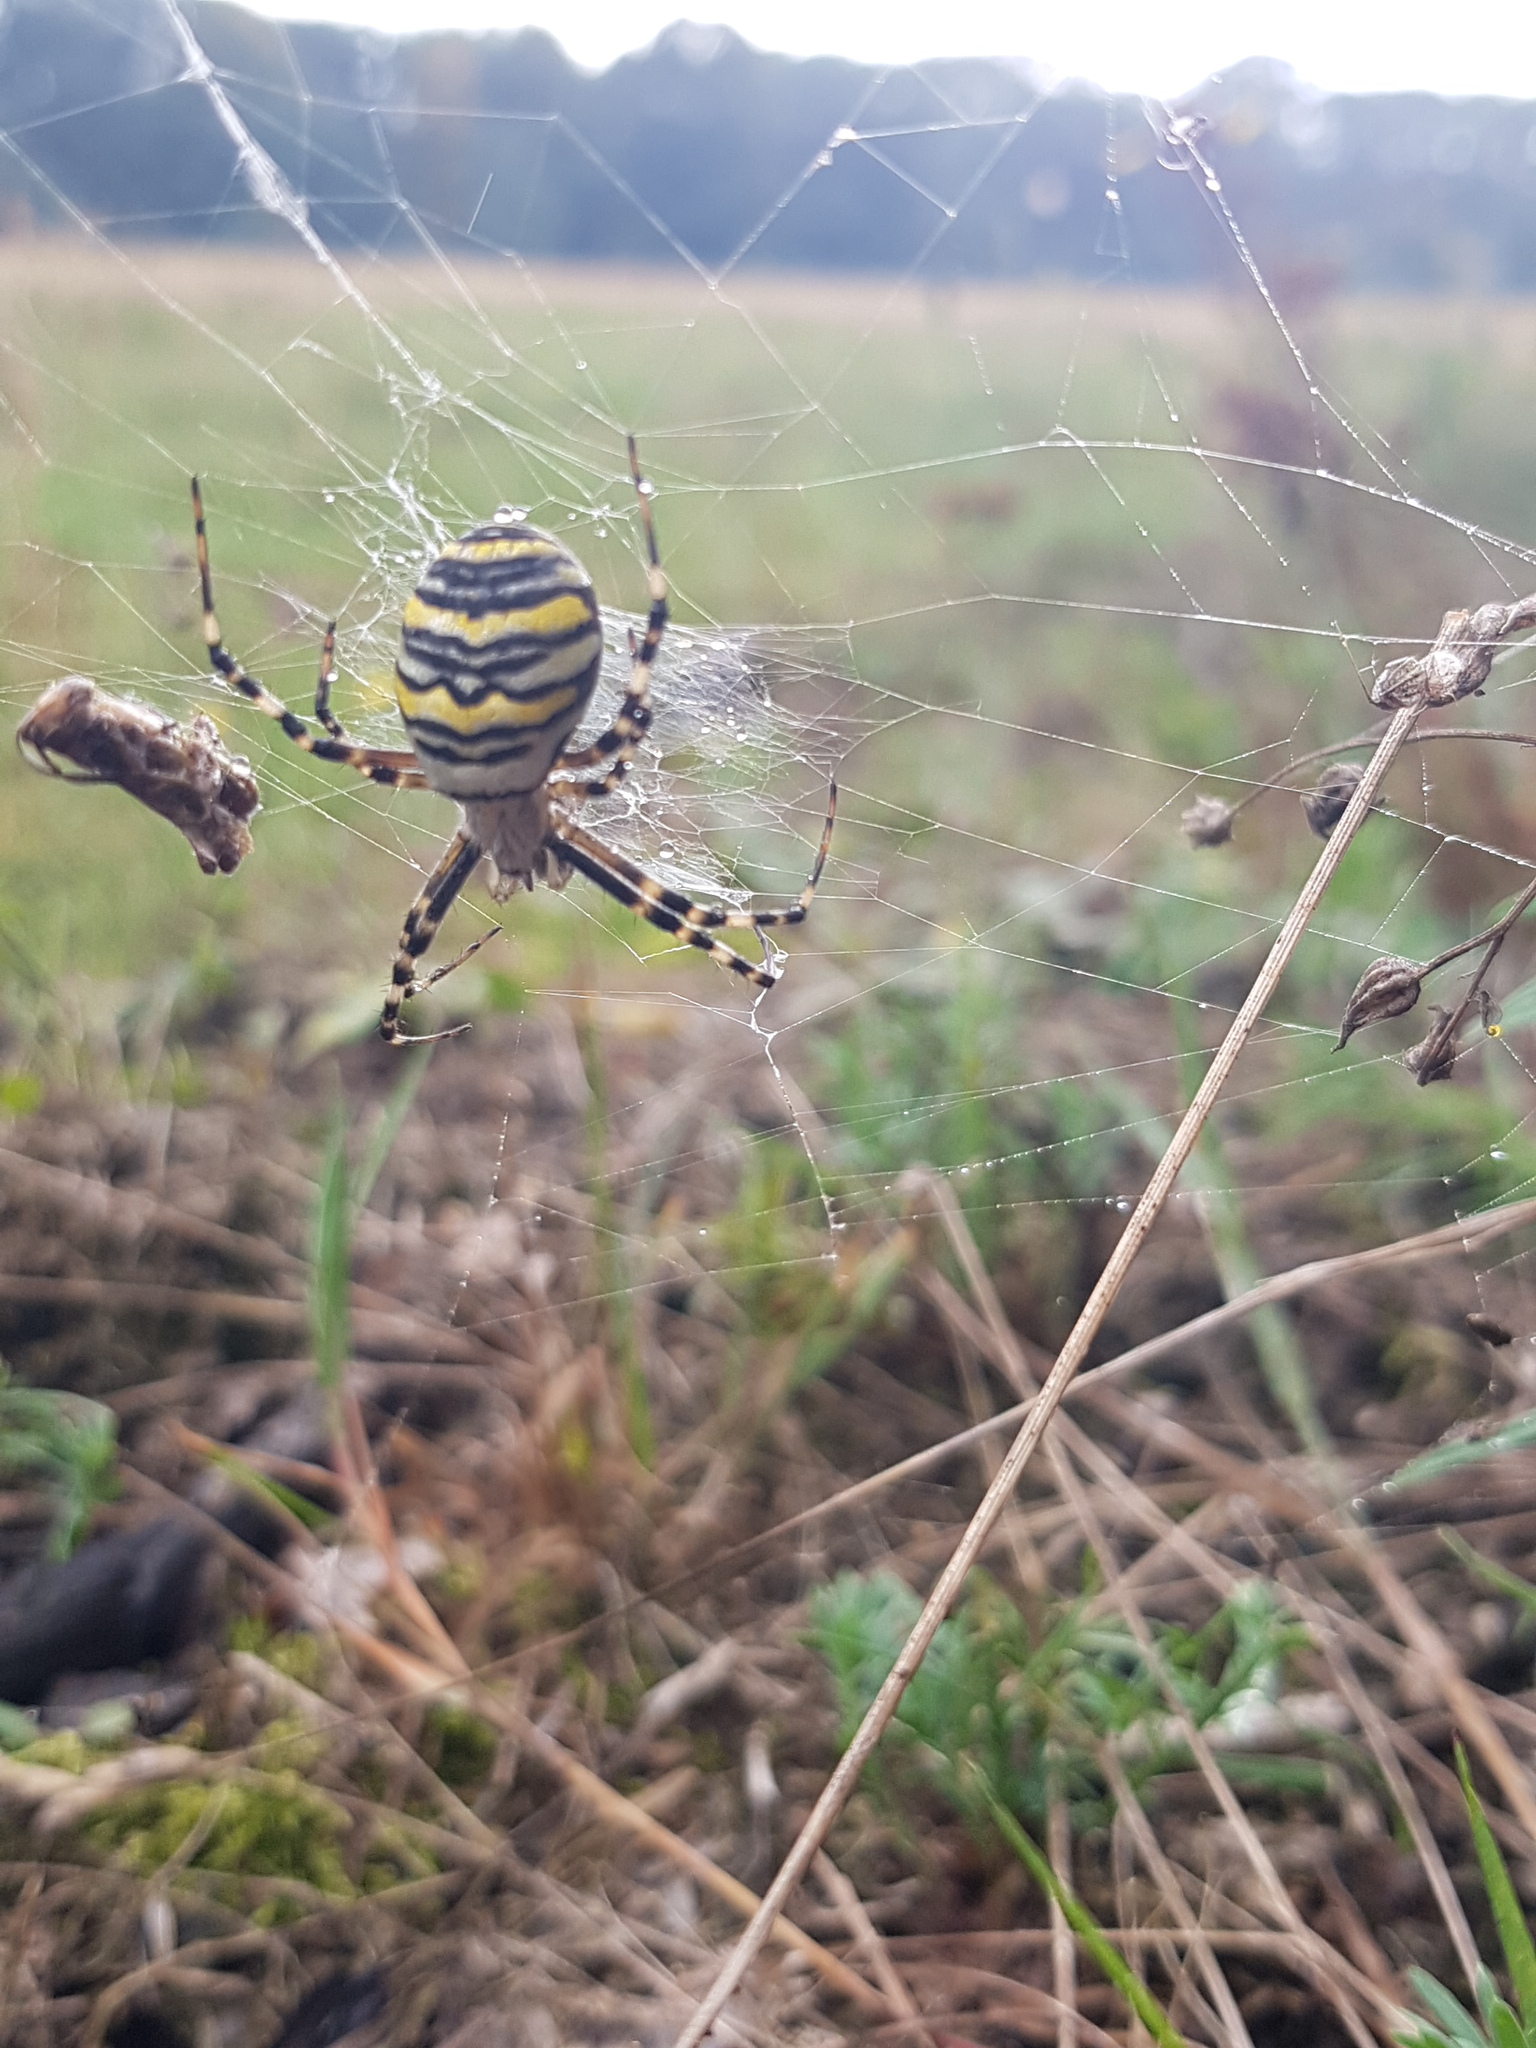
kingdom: Animalia
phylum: Arthropoda
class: Arachnida
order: Araneae
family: Araneidae
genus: Argiope
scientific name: Argiope bruennichi
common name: Wasp spider
